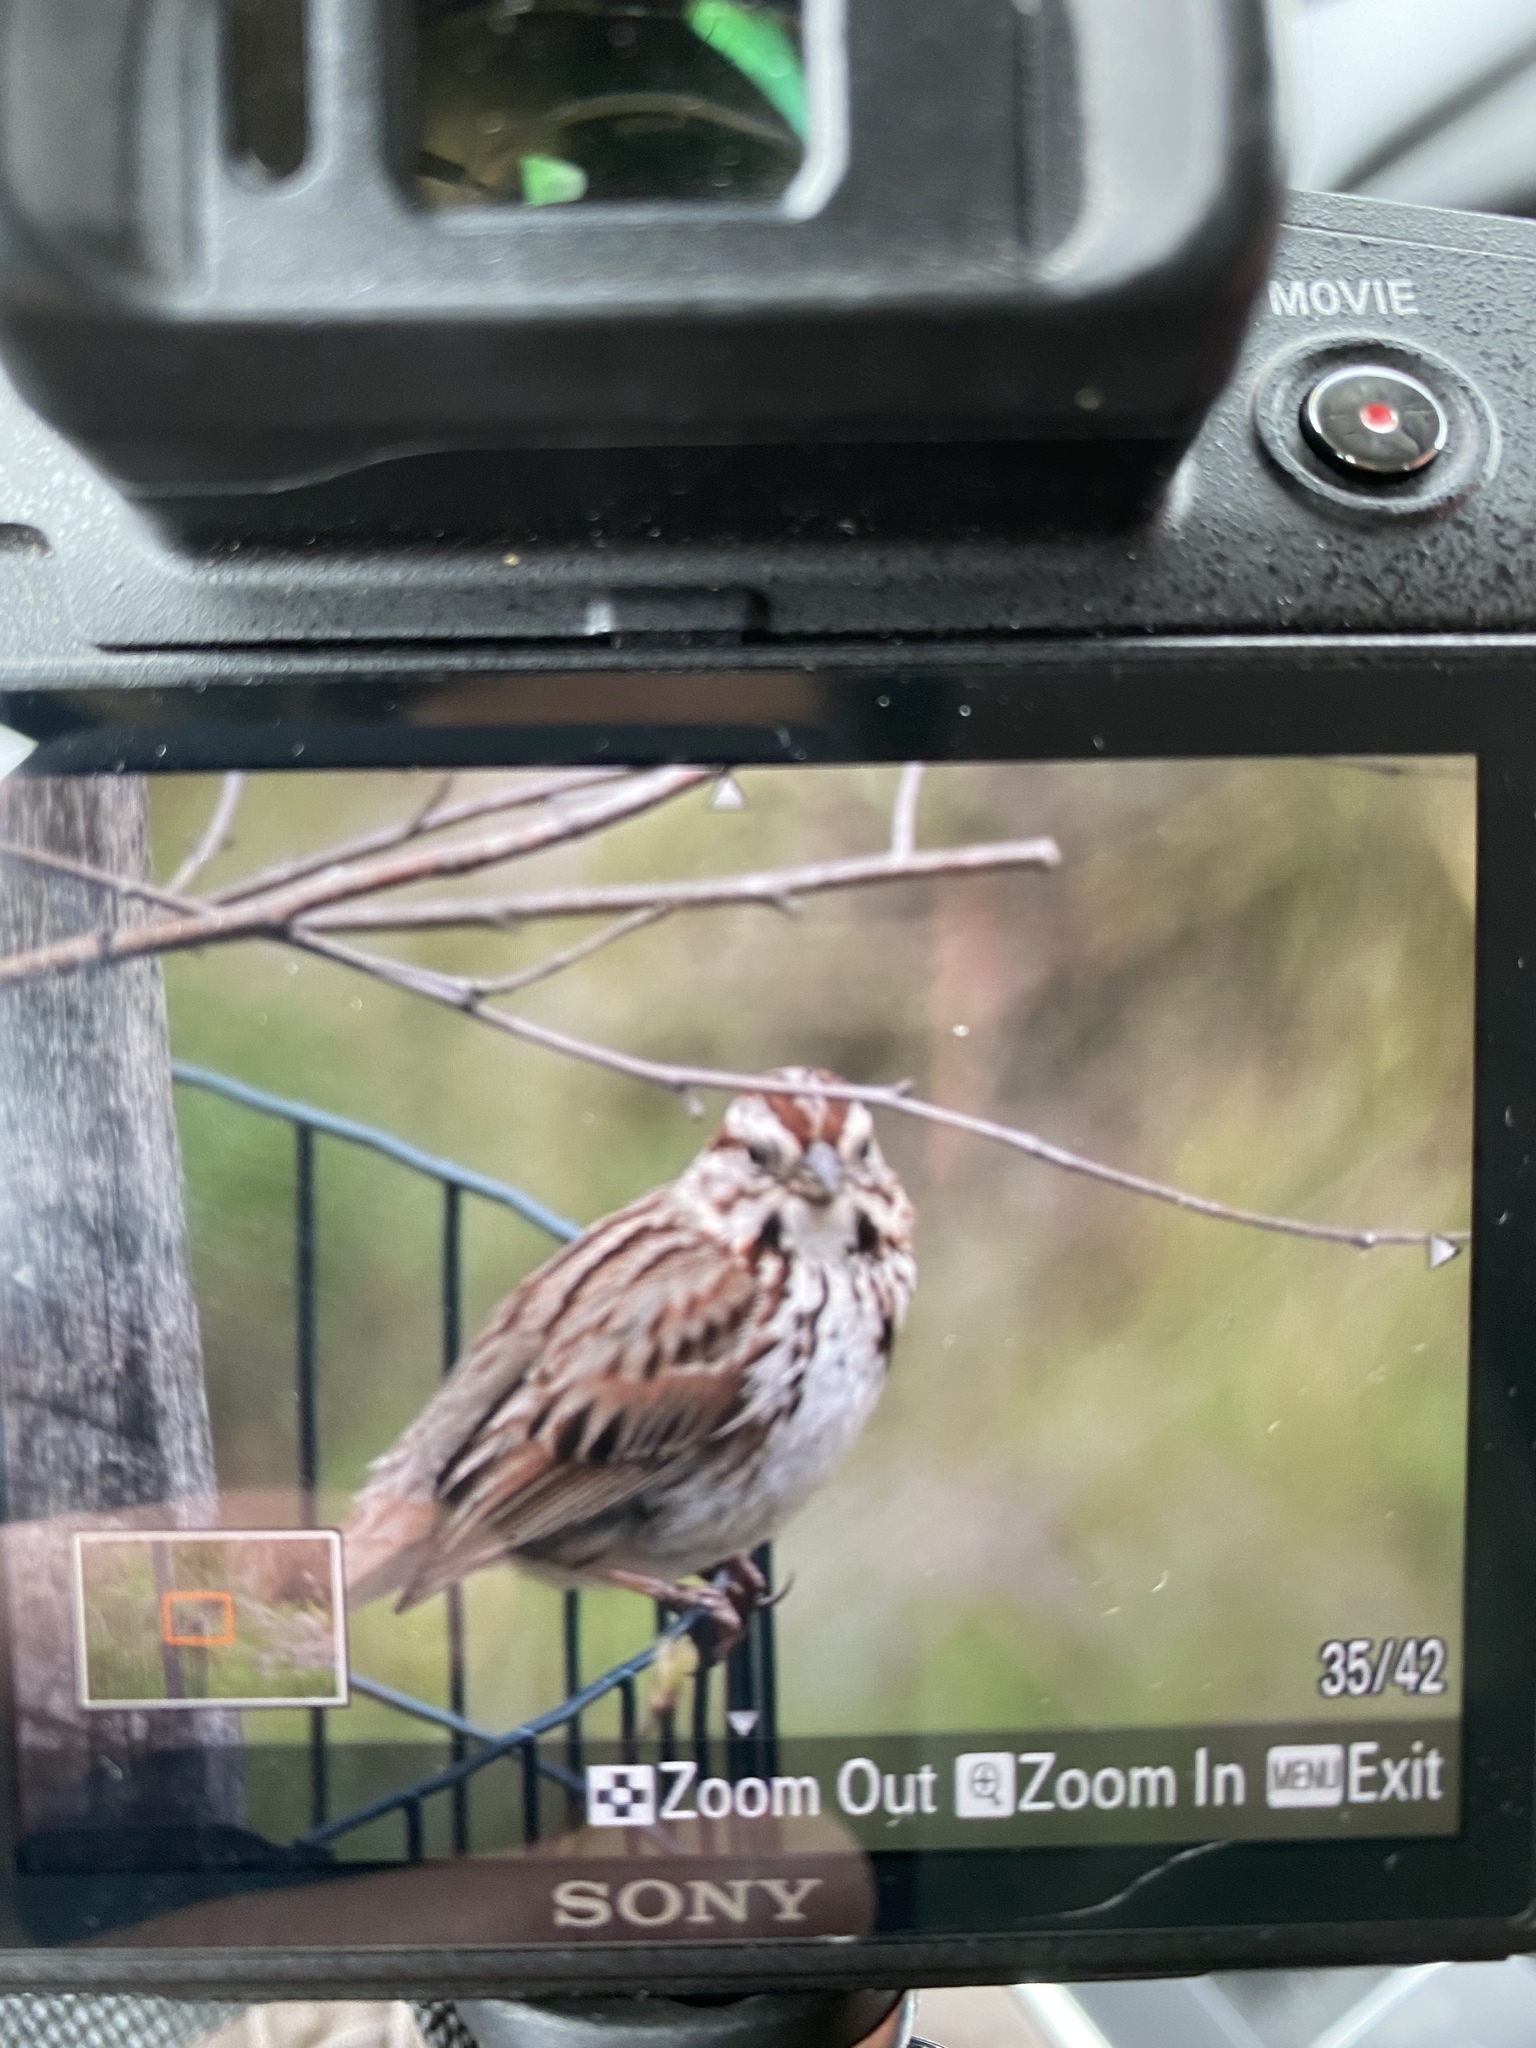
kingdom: Animalia
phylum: Chordata
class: Aves
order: Passeriformes
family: Passerellidae
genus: Melospiza
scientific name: Melospiza melodia
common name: Song sparrow
